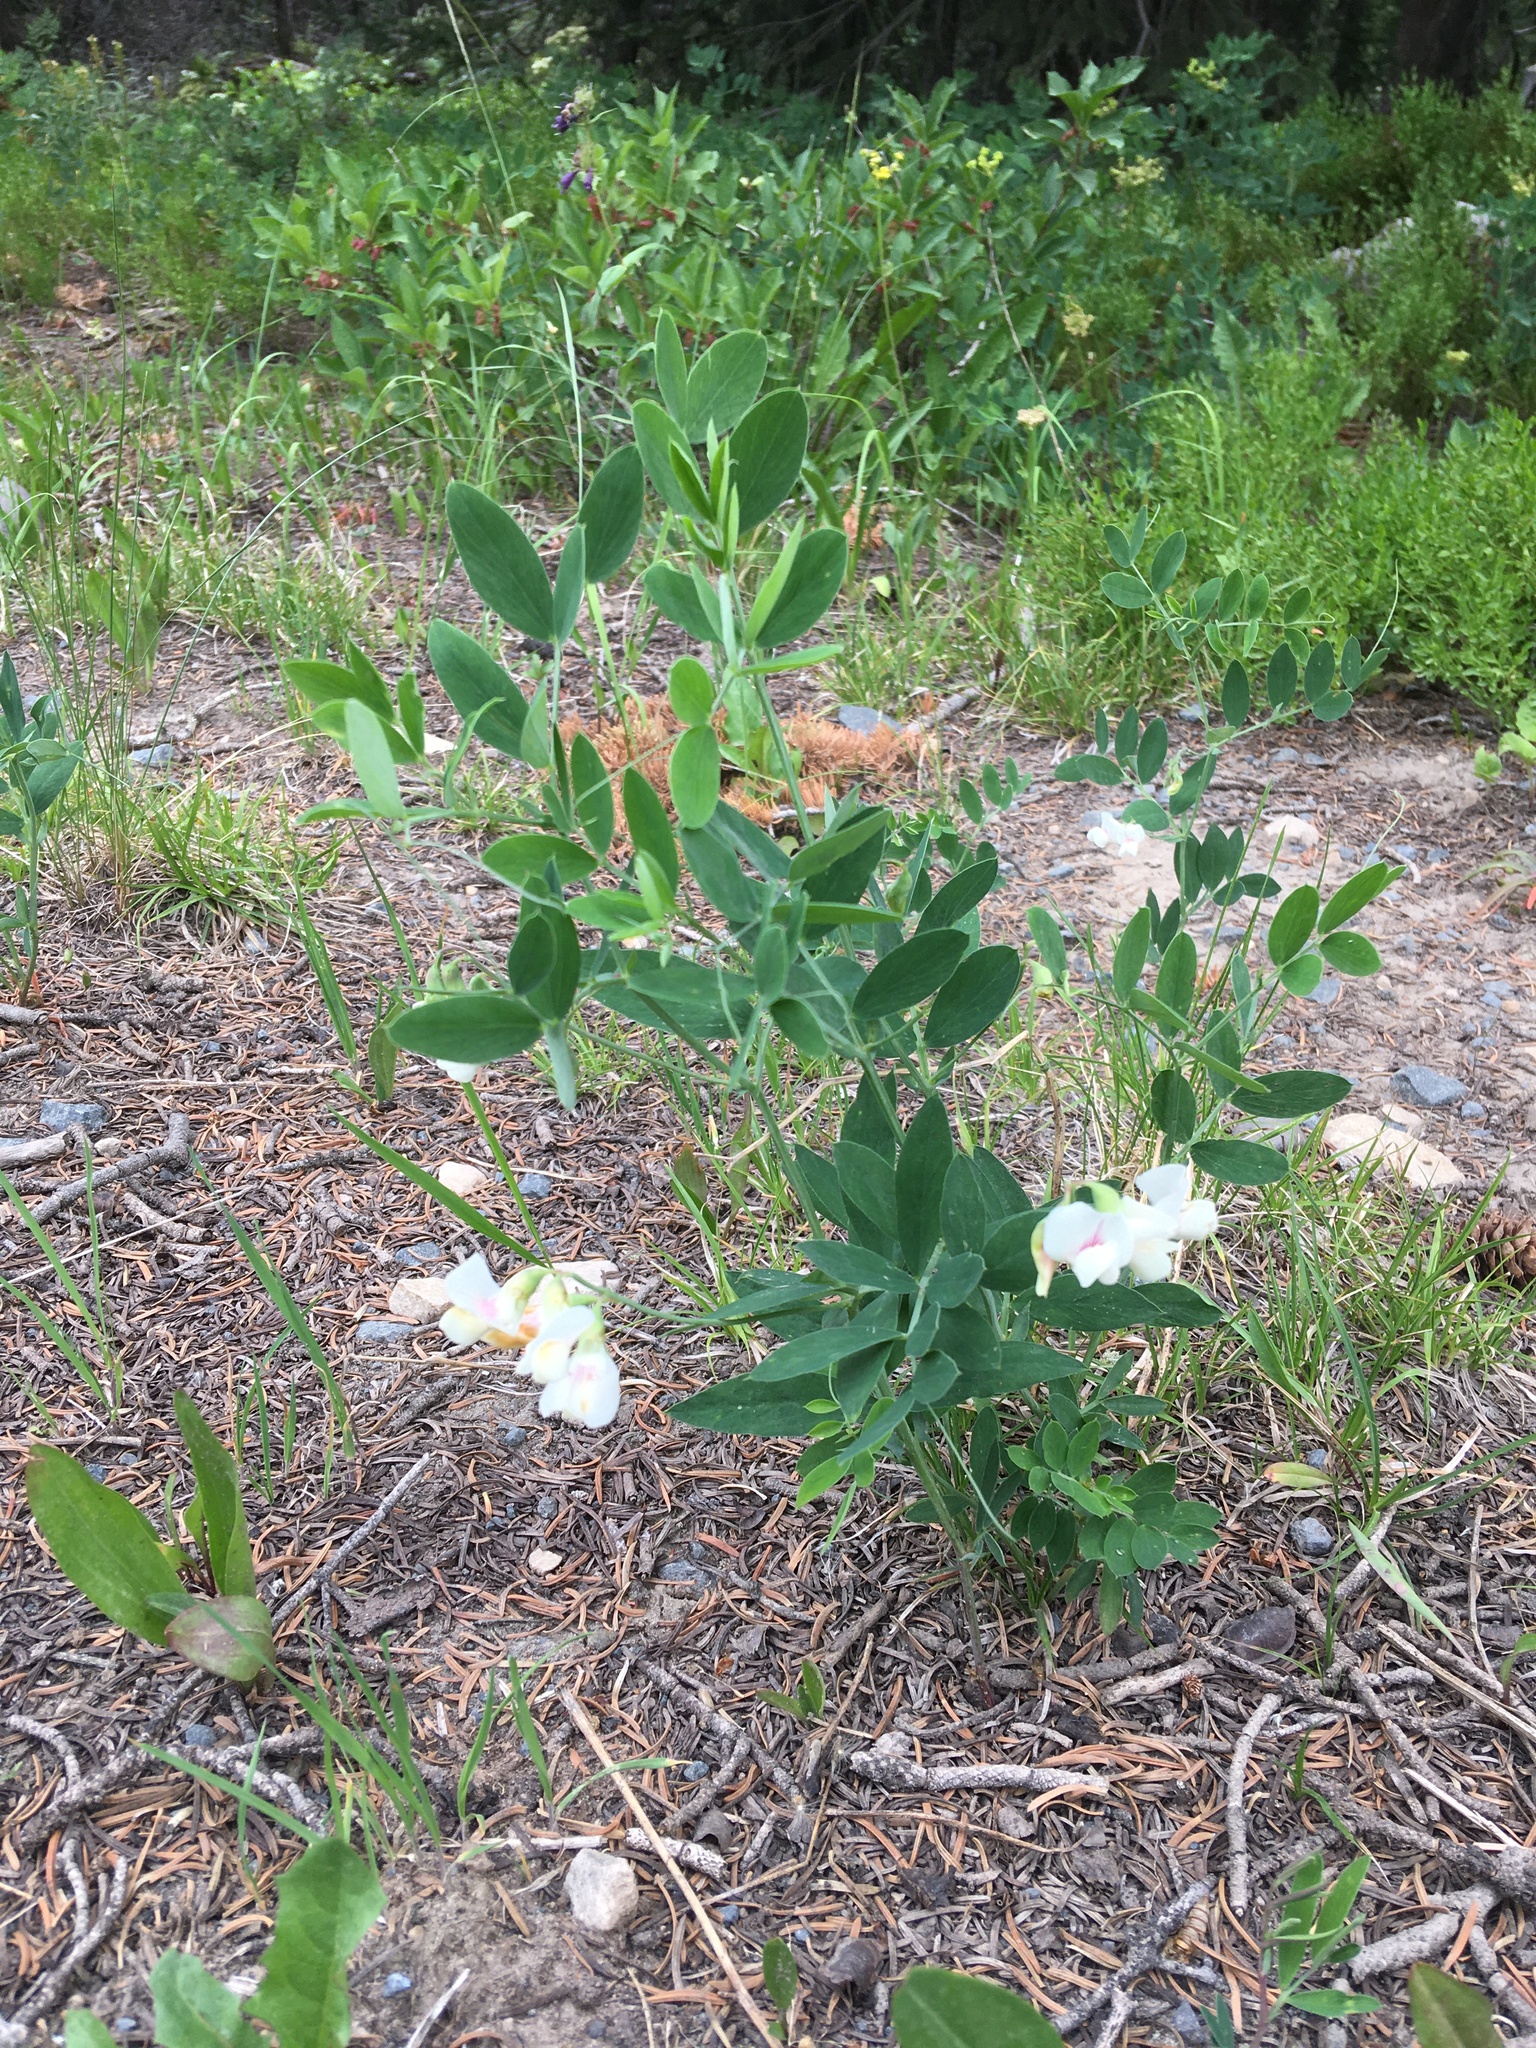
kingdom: Plantae
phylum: Tracheophyta
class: Magnoliopsida
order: Fabales
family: Fabaceae
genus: Lathyrus
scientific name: Lathyrus lanszwertii
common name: Lanszwert's vetchling
